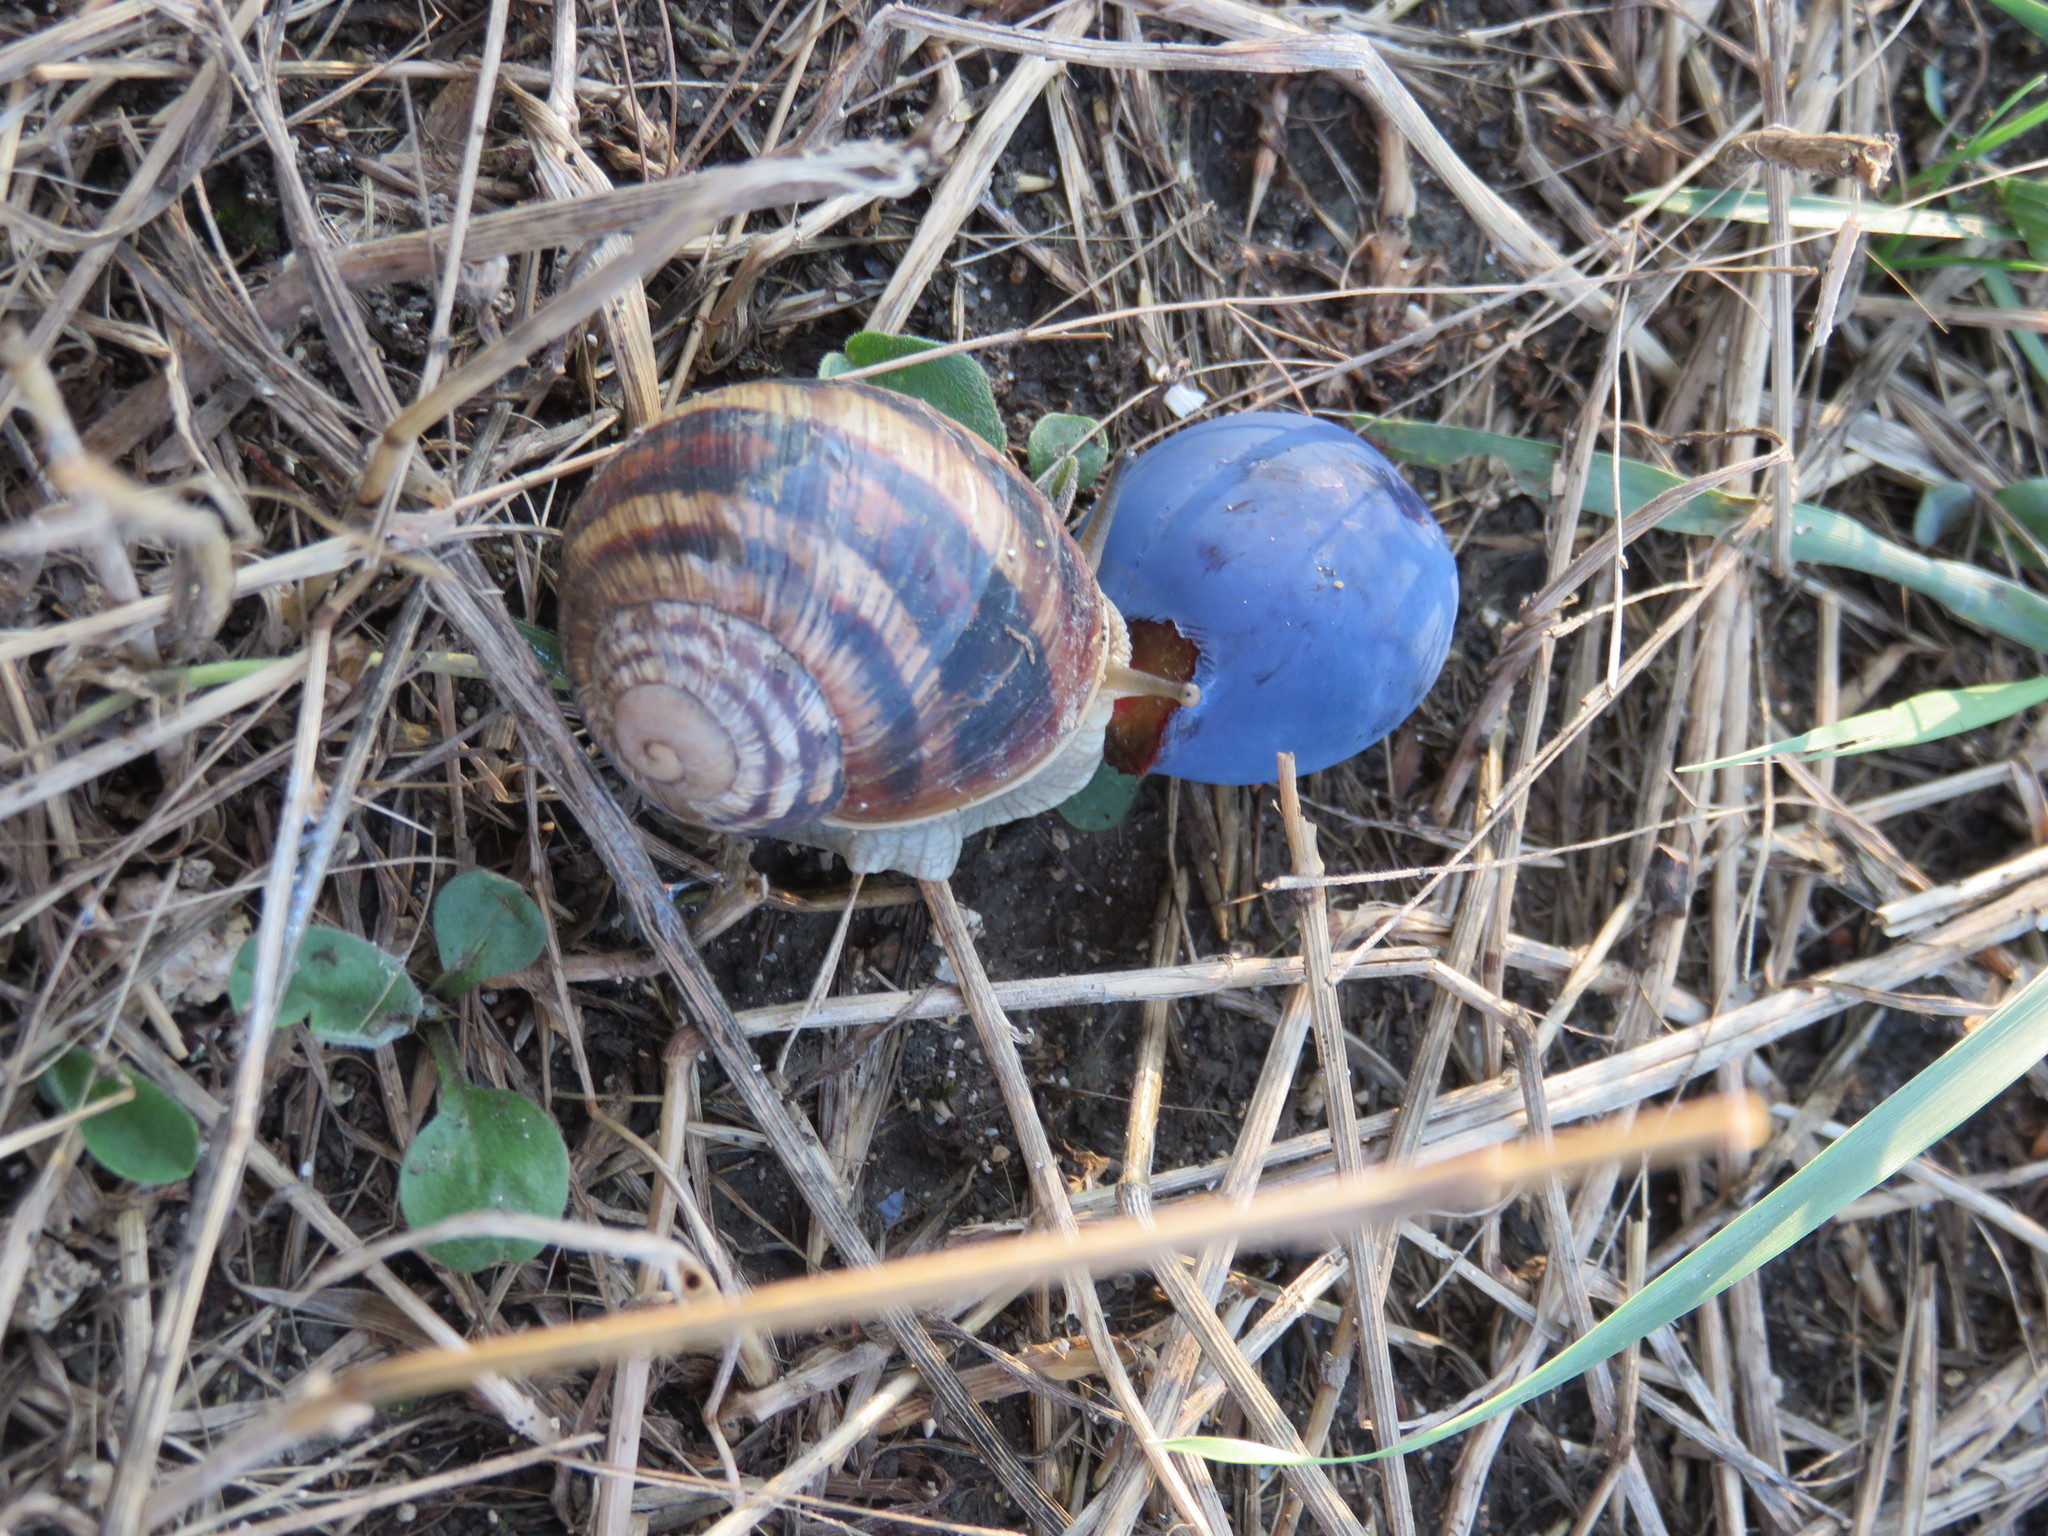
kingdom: Animalia
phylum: Mollusca
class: Gastropoda
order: Stylommatophora
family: Helicidae
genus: Helix
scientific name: Helix albescens
